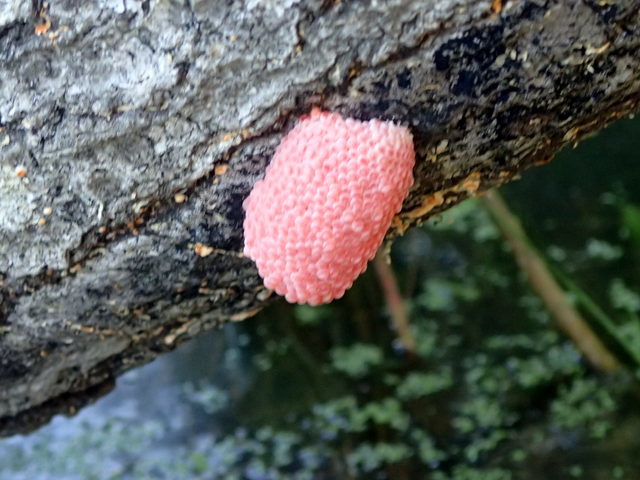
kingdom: Animalia
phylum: Mollusca
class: Gastropoda
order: Architaenioglossa
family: Ampullariidae
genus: Pomacea
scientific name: Pomacea maculata
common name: Giant applesnail
